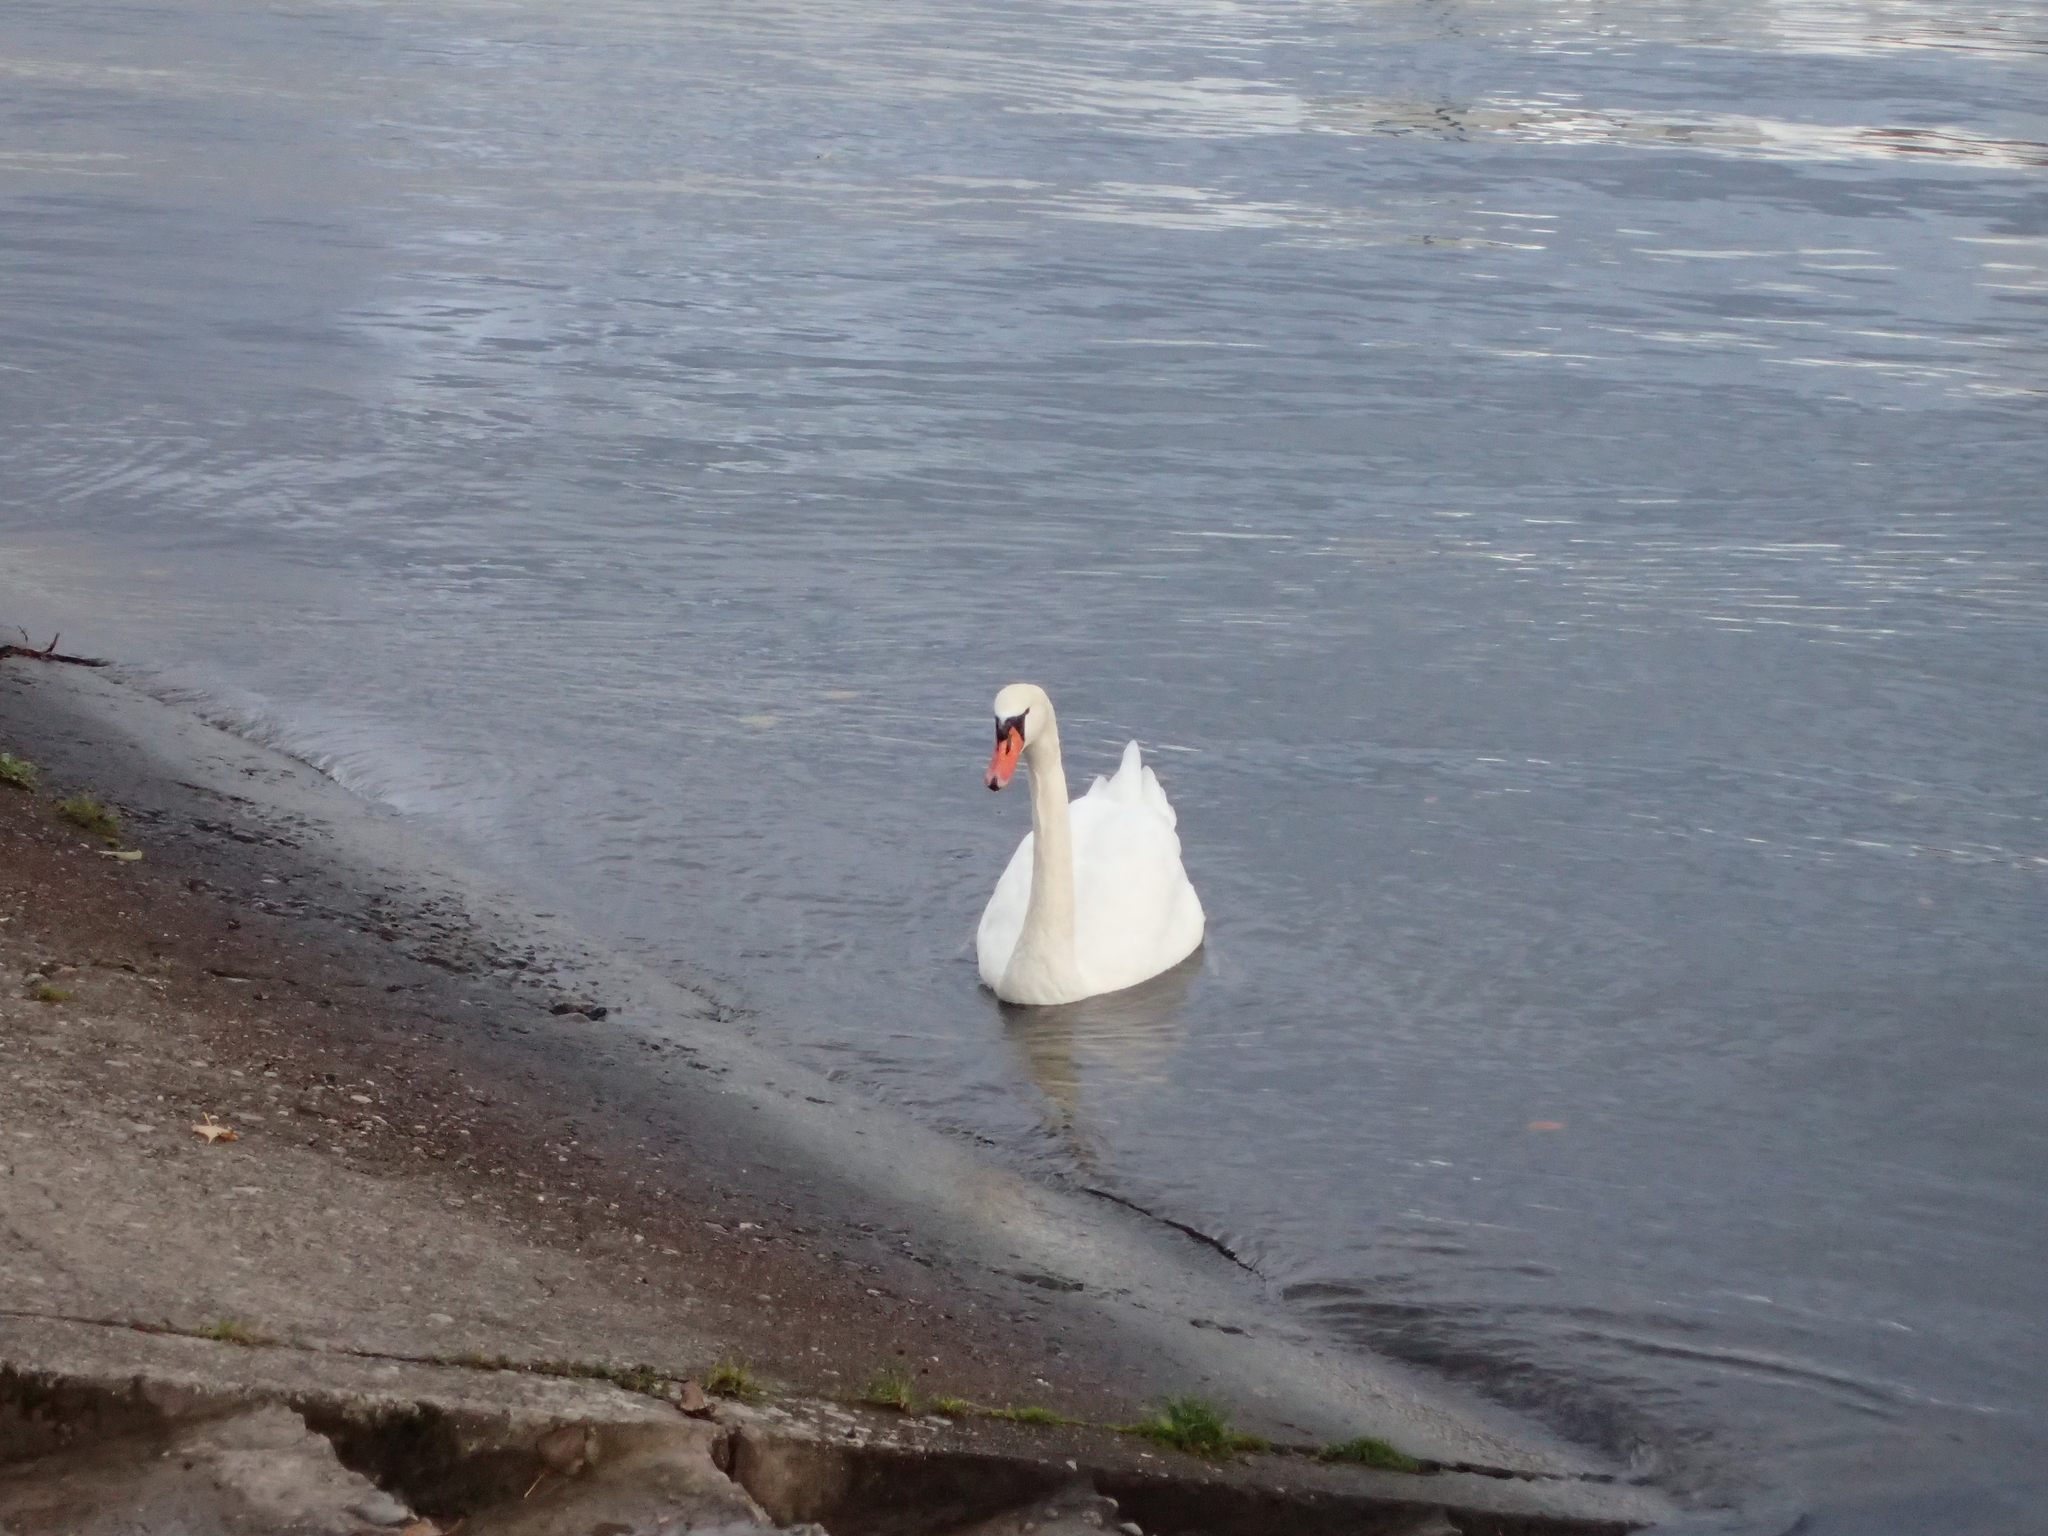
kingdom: Animalia
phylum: Chordata
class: Aves
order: Anseriformes
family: Anatidae
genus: Cygnus
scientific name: Cygnus olor
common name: Mute swan
